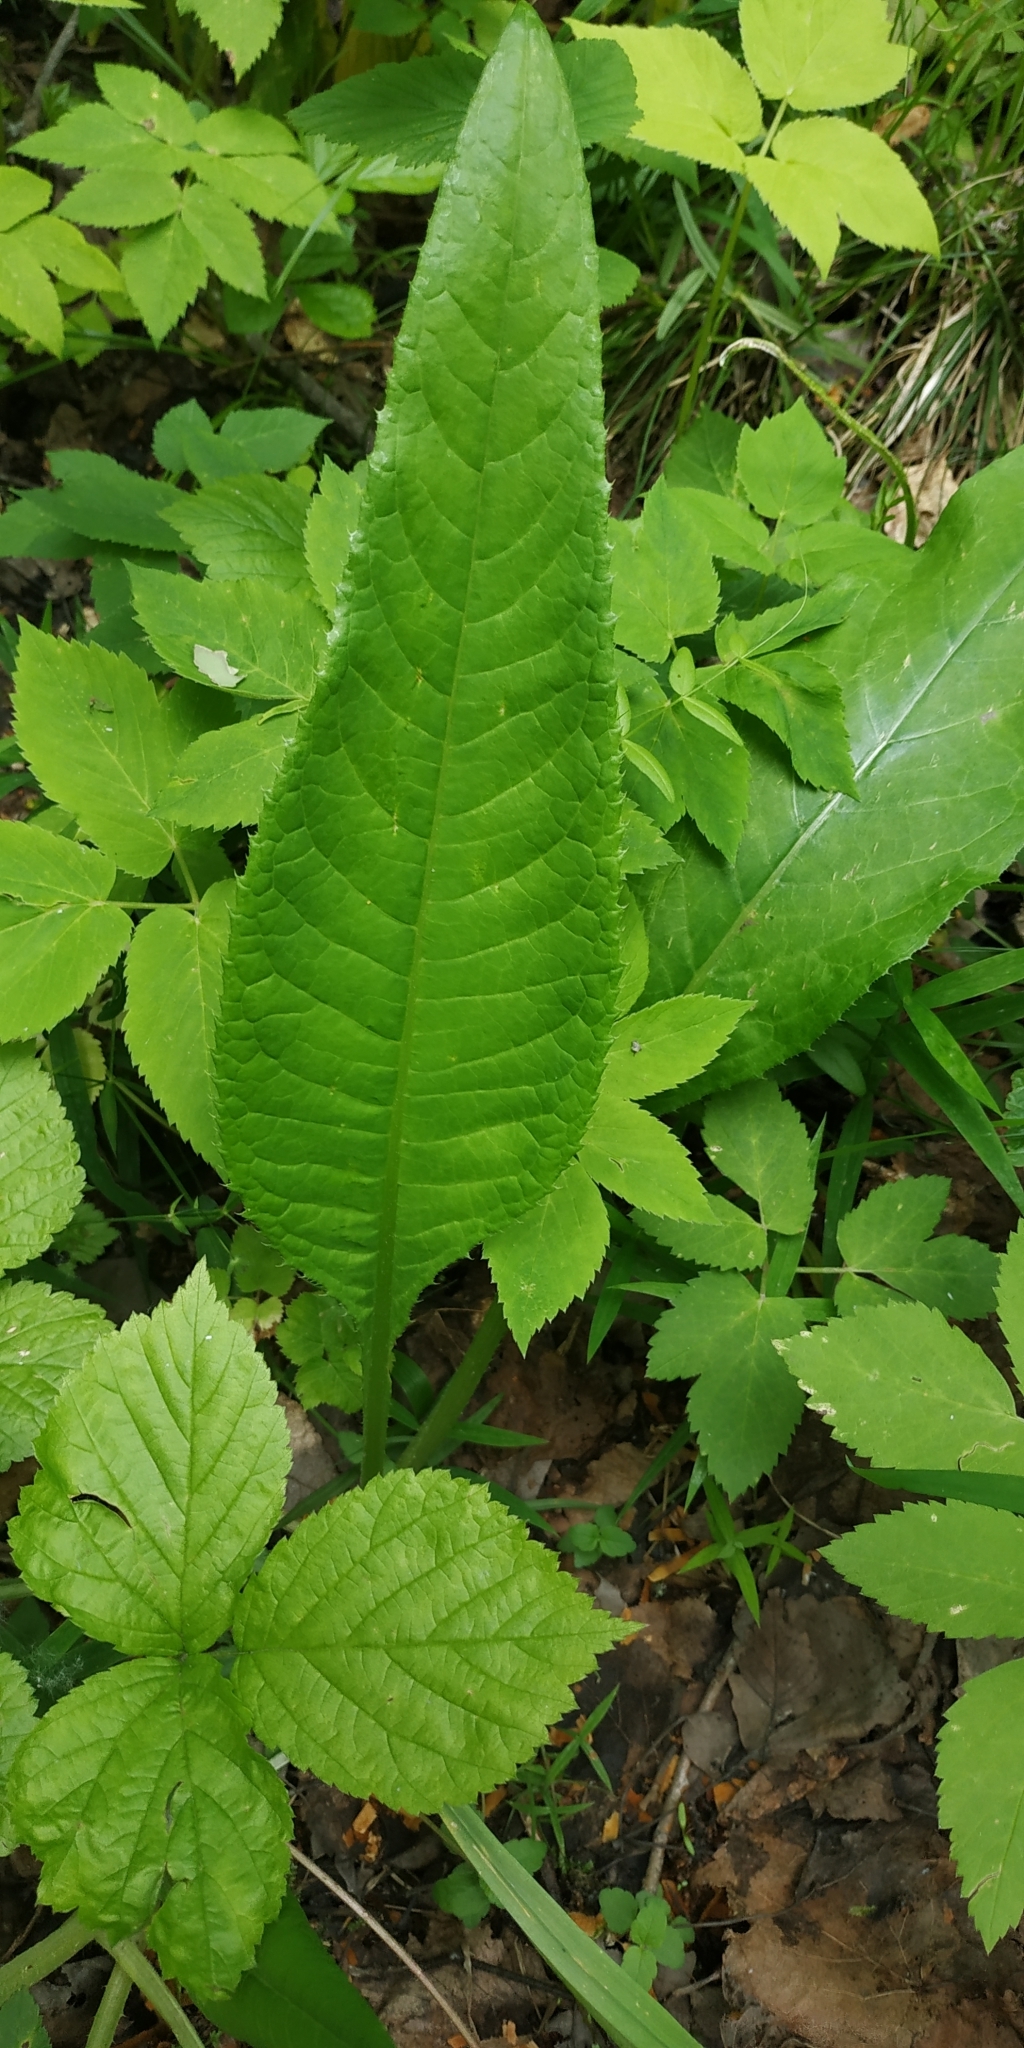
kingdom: Plantae
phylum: Tracheophyta
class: Magnoliopsida
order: Asterales
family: Asteraceae
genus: Cirsium
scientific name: Cirsium heterophyllum
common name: Melancholy thistle
